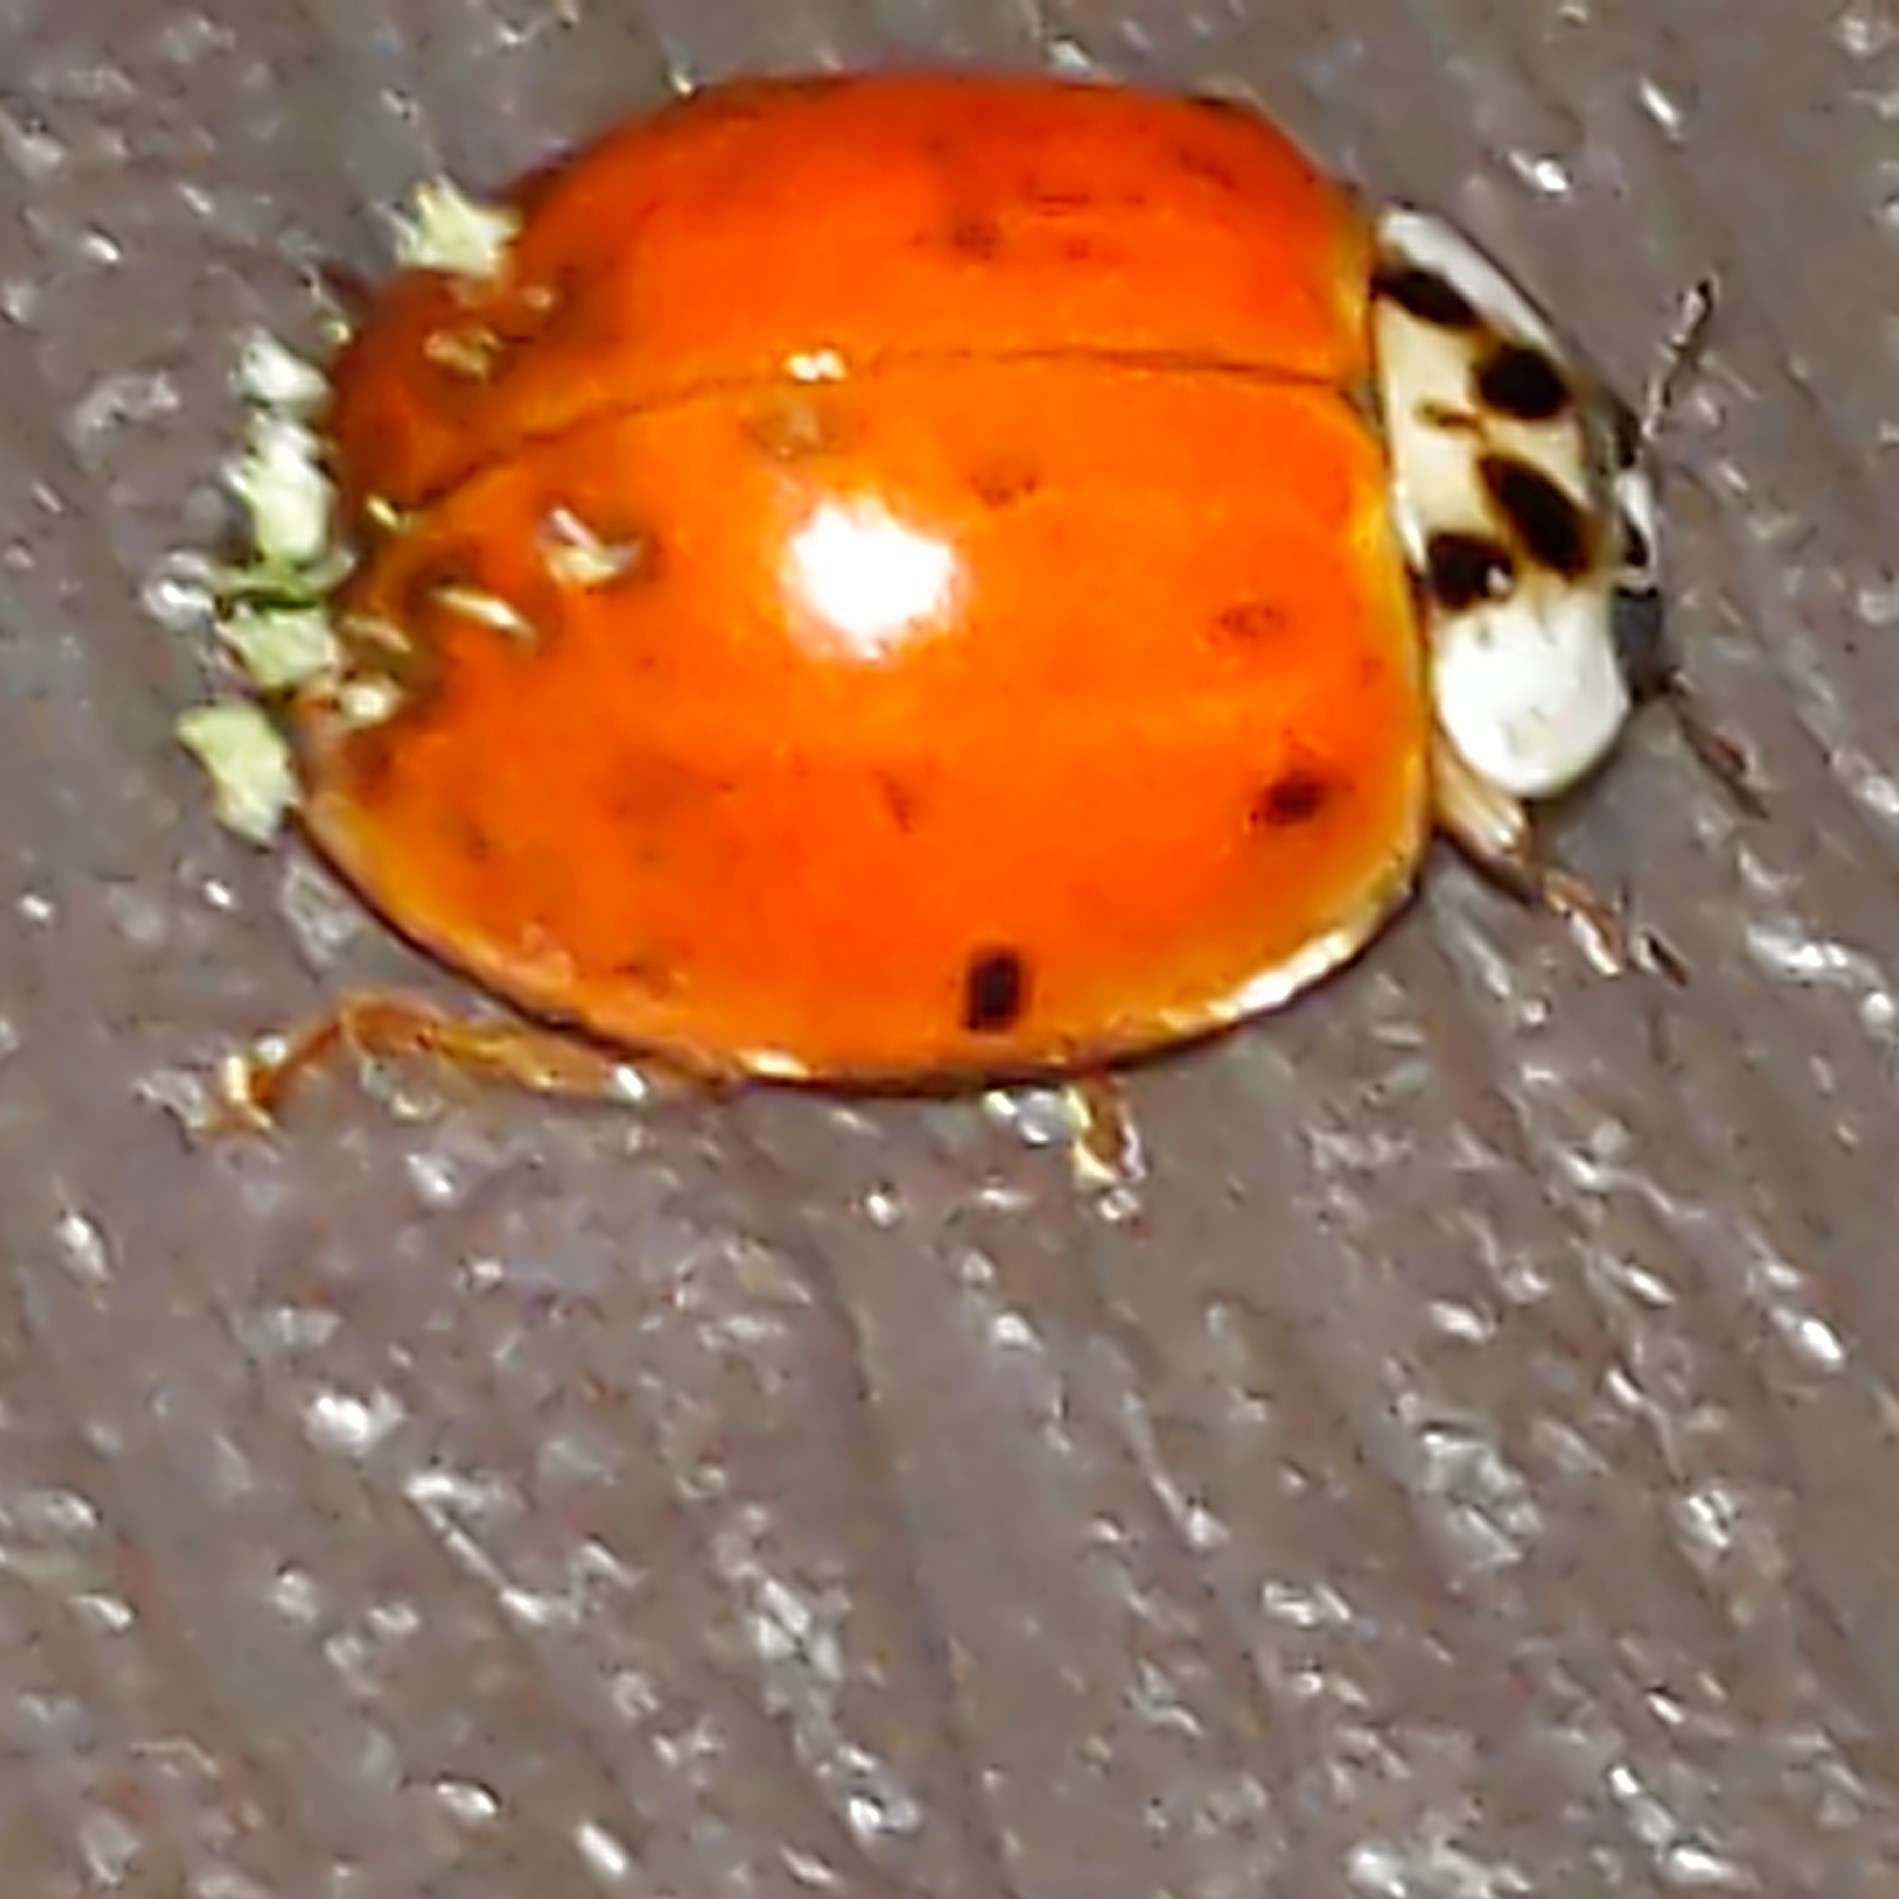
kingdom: Fungi
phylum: Ascomycota
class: Laboulbeniomycetes
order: Laboulbeniales
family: Laboulbeniaceae
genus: Hesperomyces
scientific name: Hesperomyces harmoniae
